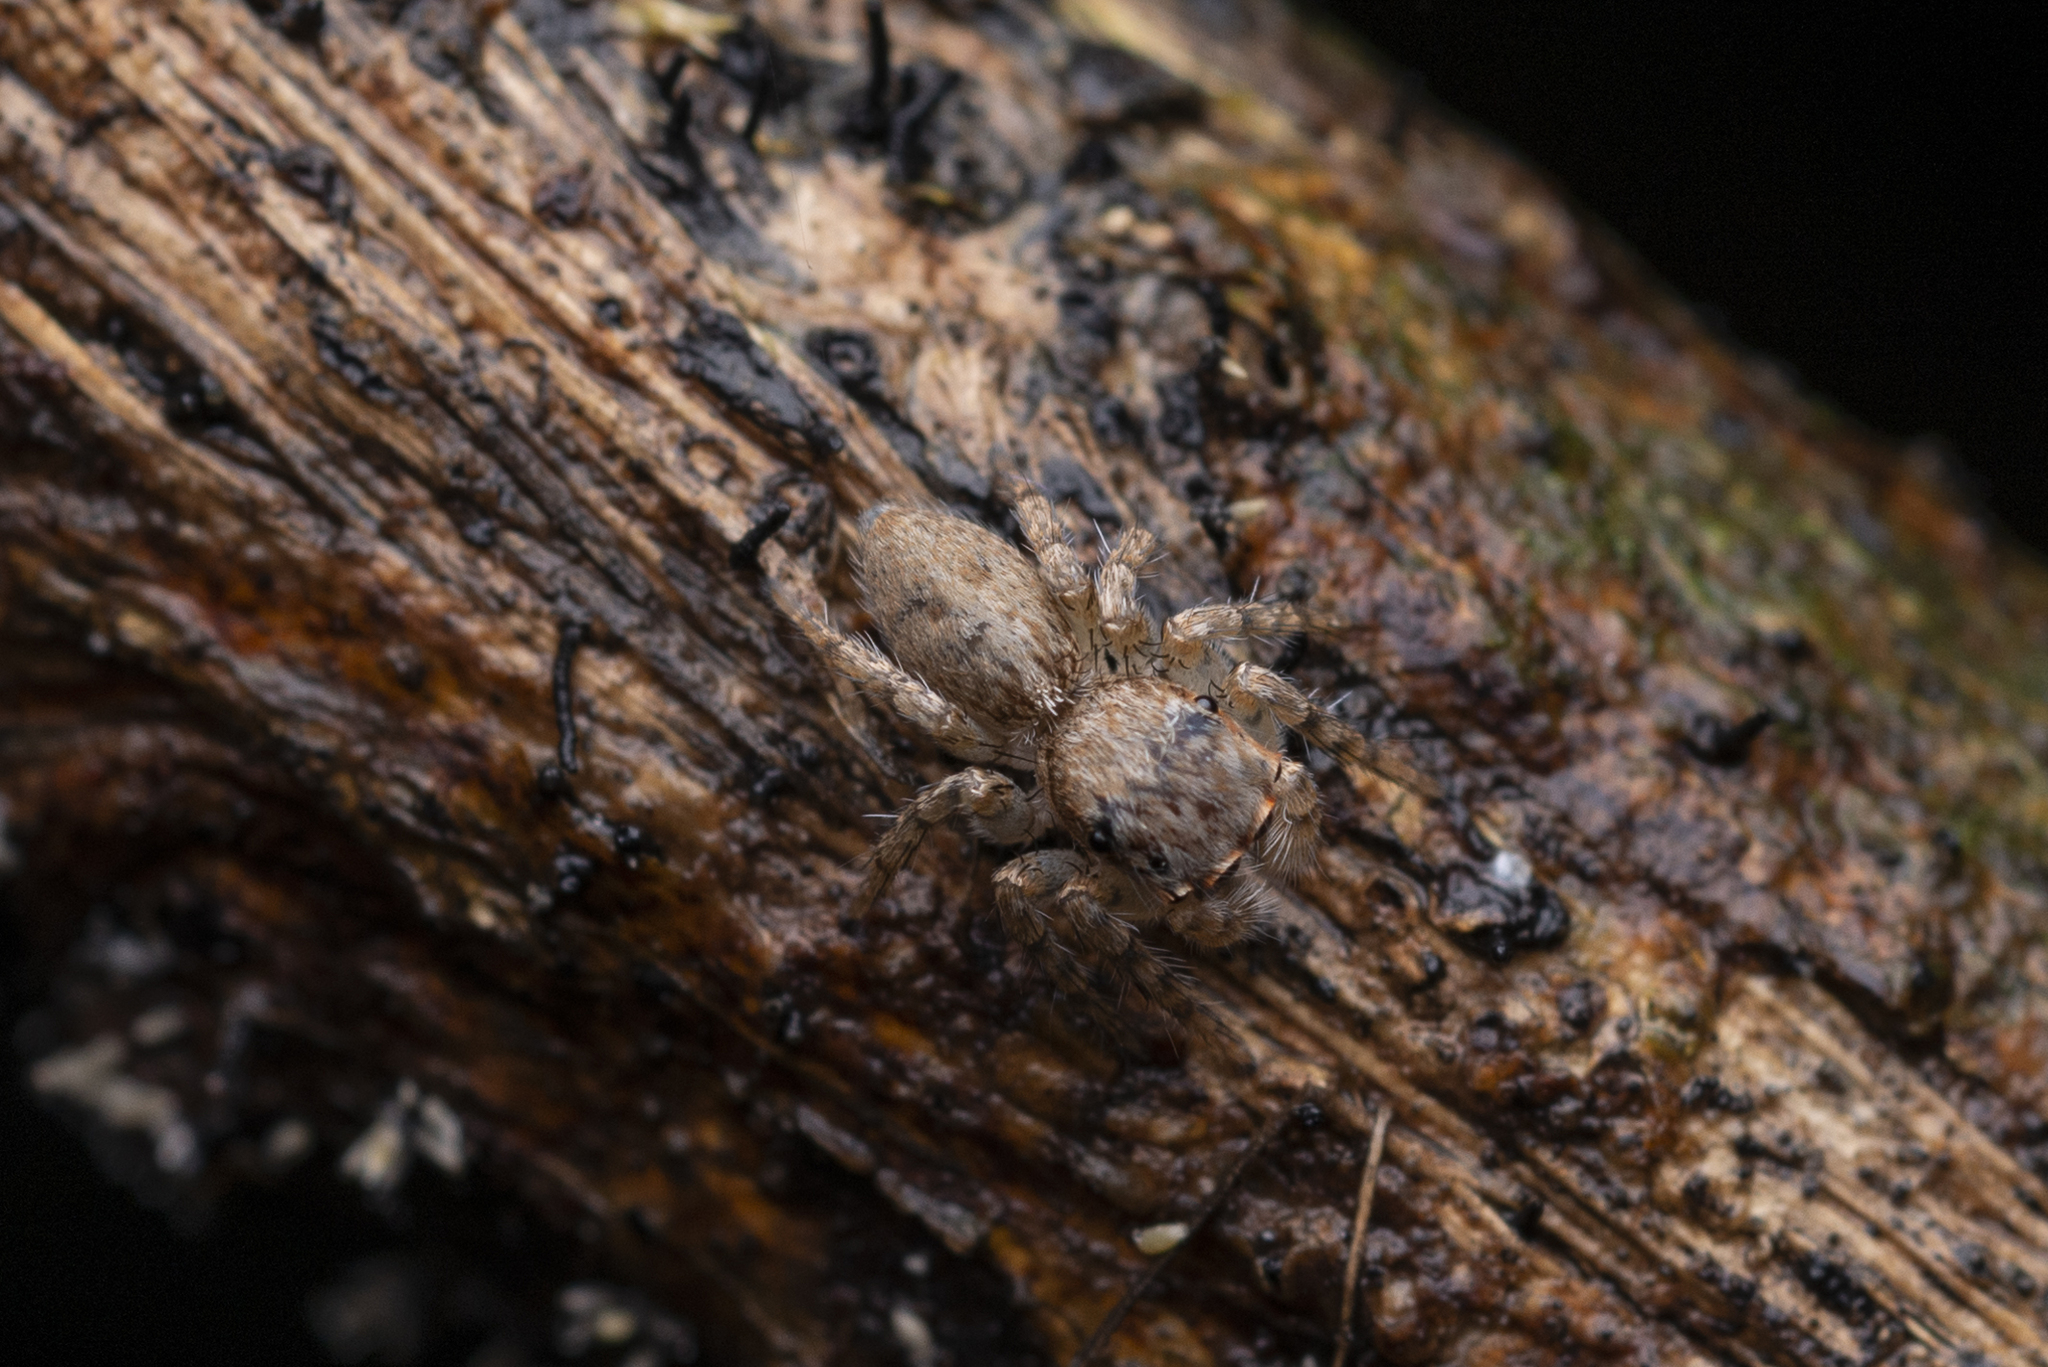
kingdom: Animalia
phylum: Arthropoda
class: Arachnida
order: Araneae
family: Salticidae
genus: Cytaea
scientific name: Cytaea maoming
